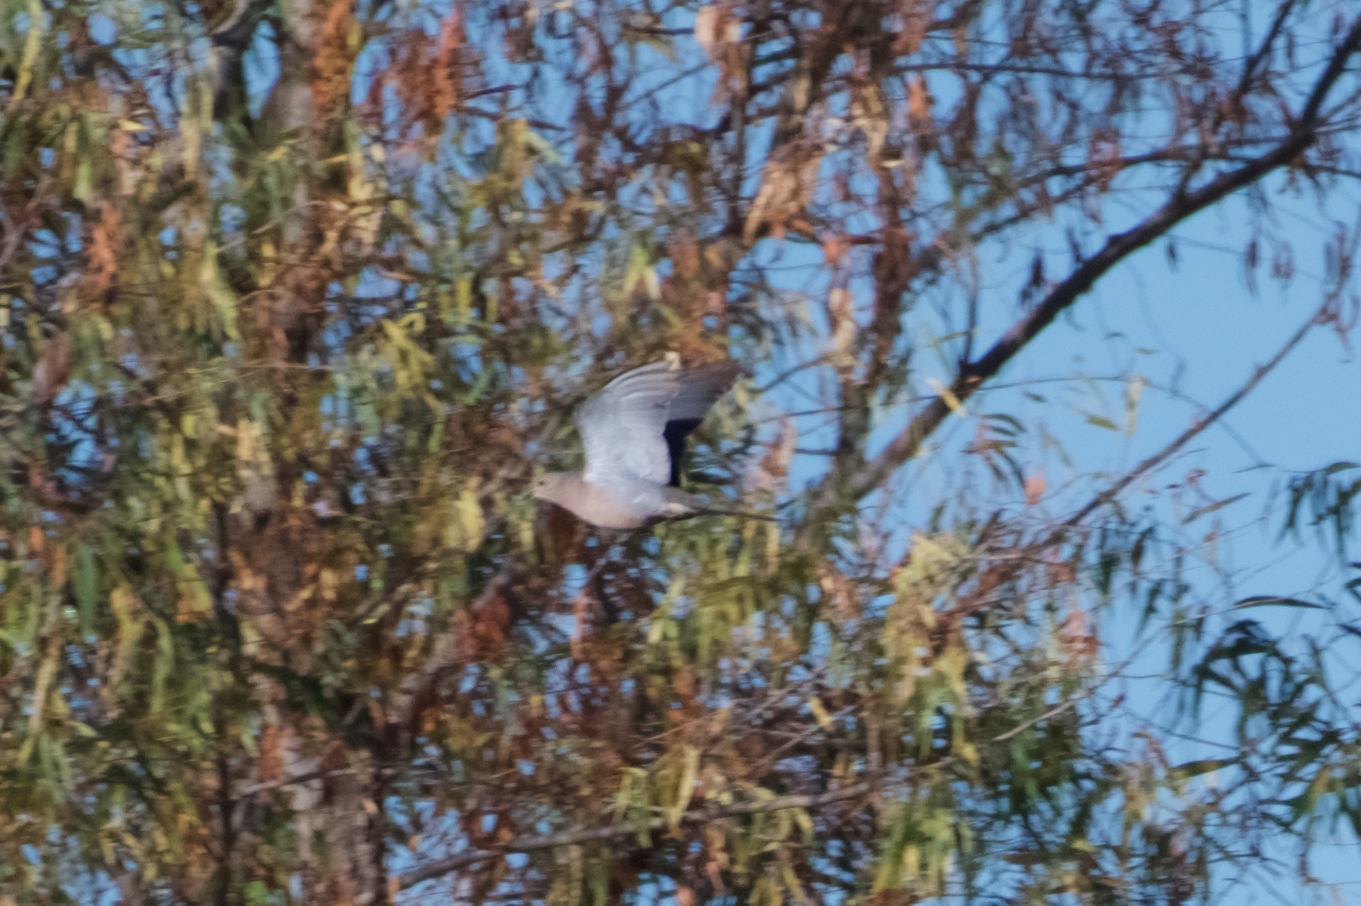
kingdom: Animalia
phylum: Chordata
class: Aves
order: Columbiformes
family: Columbidae
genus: Zenaida
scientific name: Zenaida macroura
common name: Mourning dove
